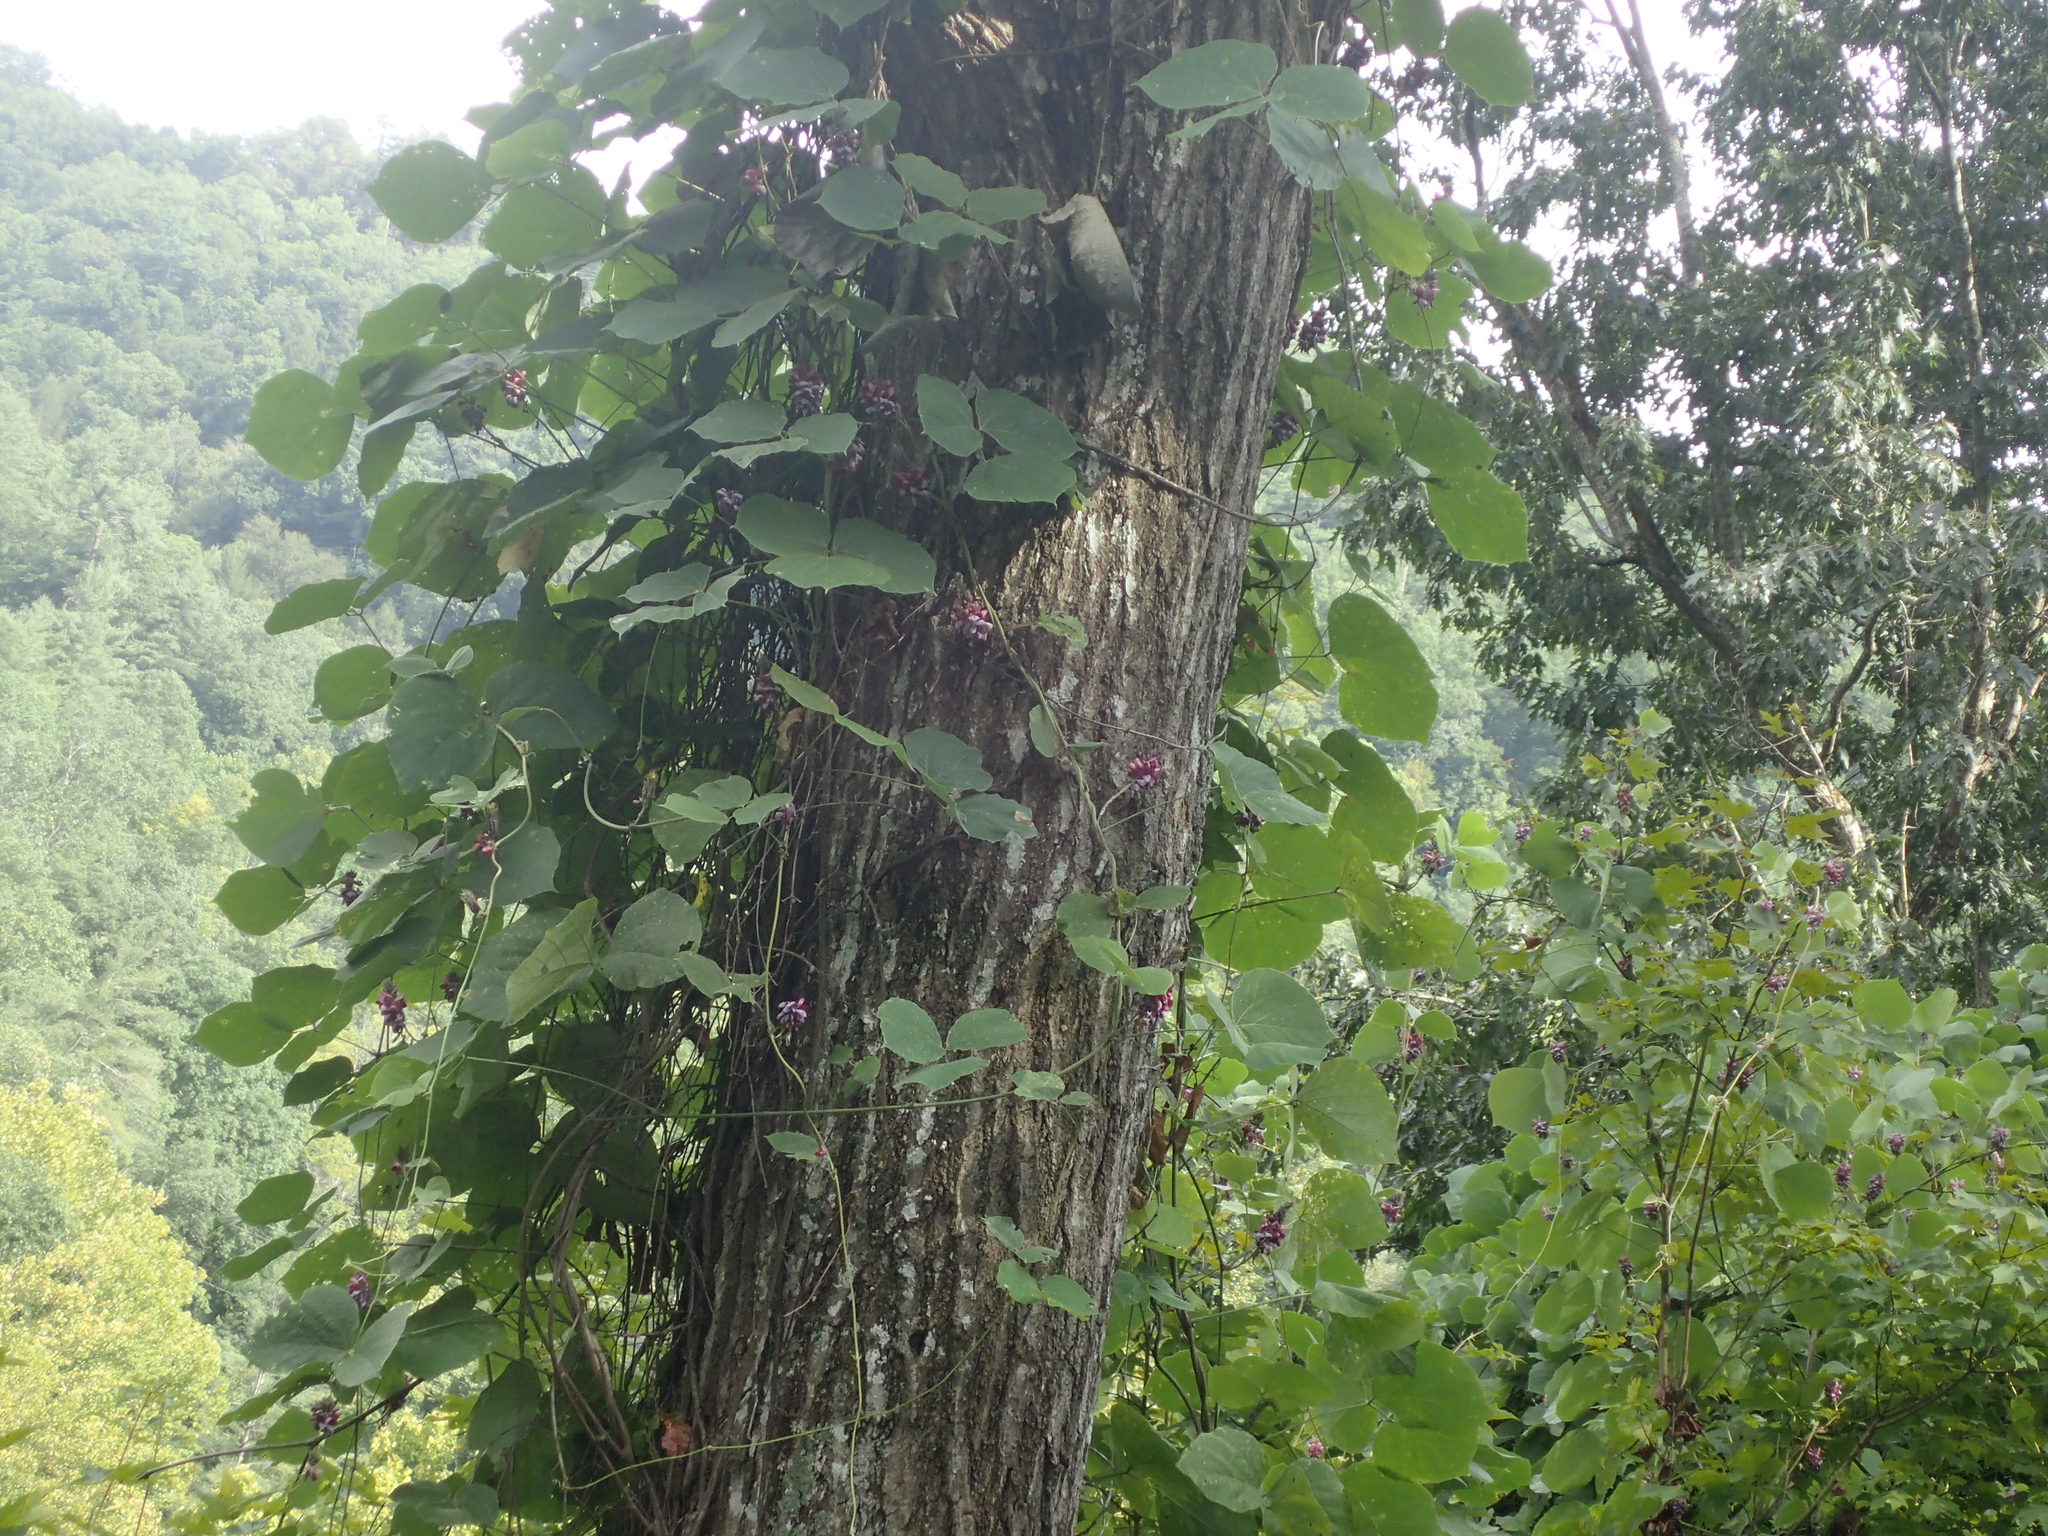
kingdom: Plantae
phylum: Tracheophyta
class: Magnoliopsida
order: Fabales
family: Fabaceae
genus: Pueraria
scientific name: Pueraria montana
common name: Kudzu
